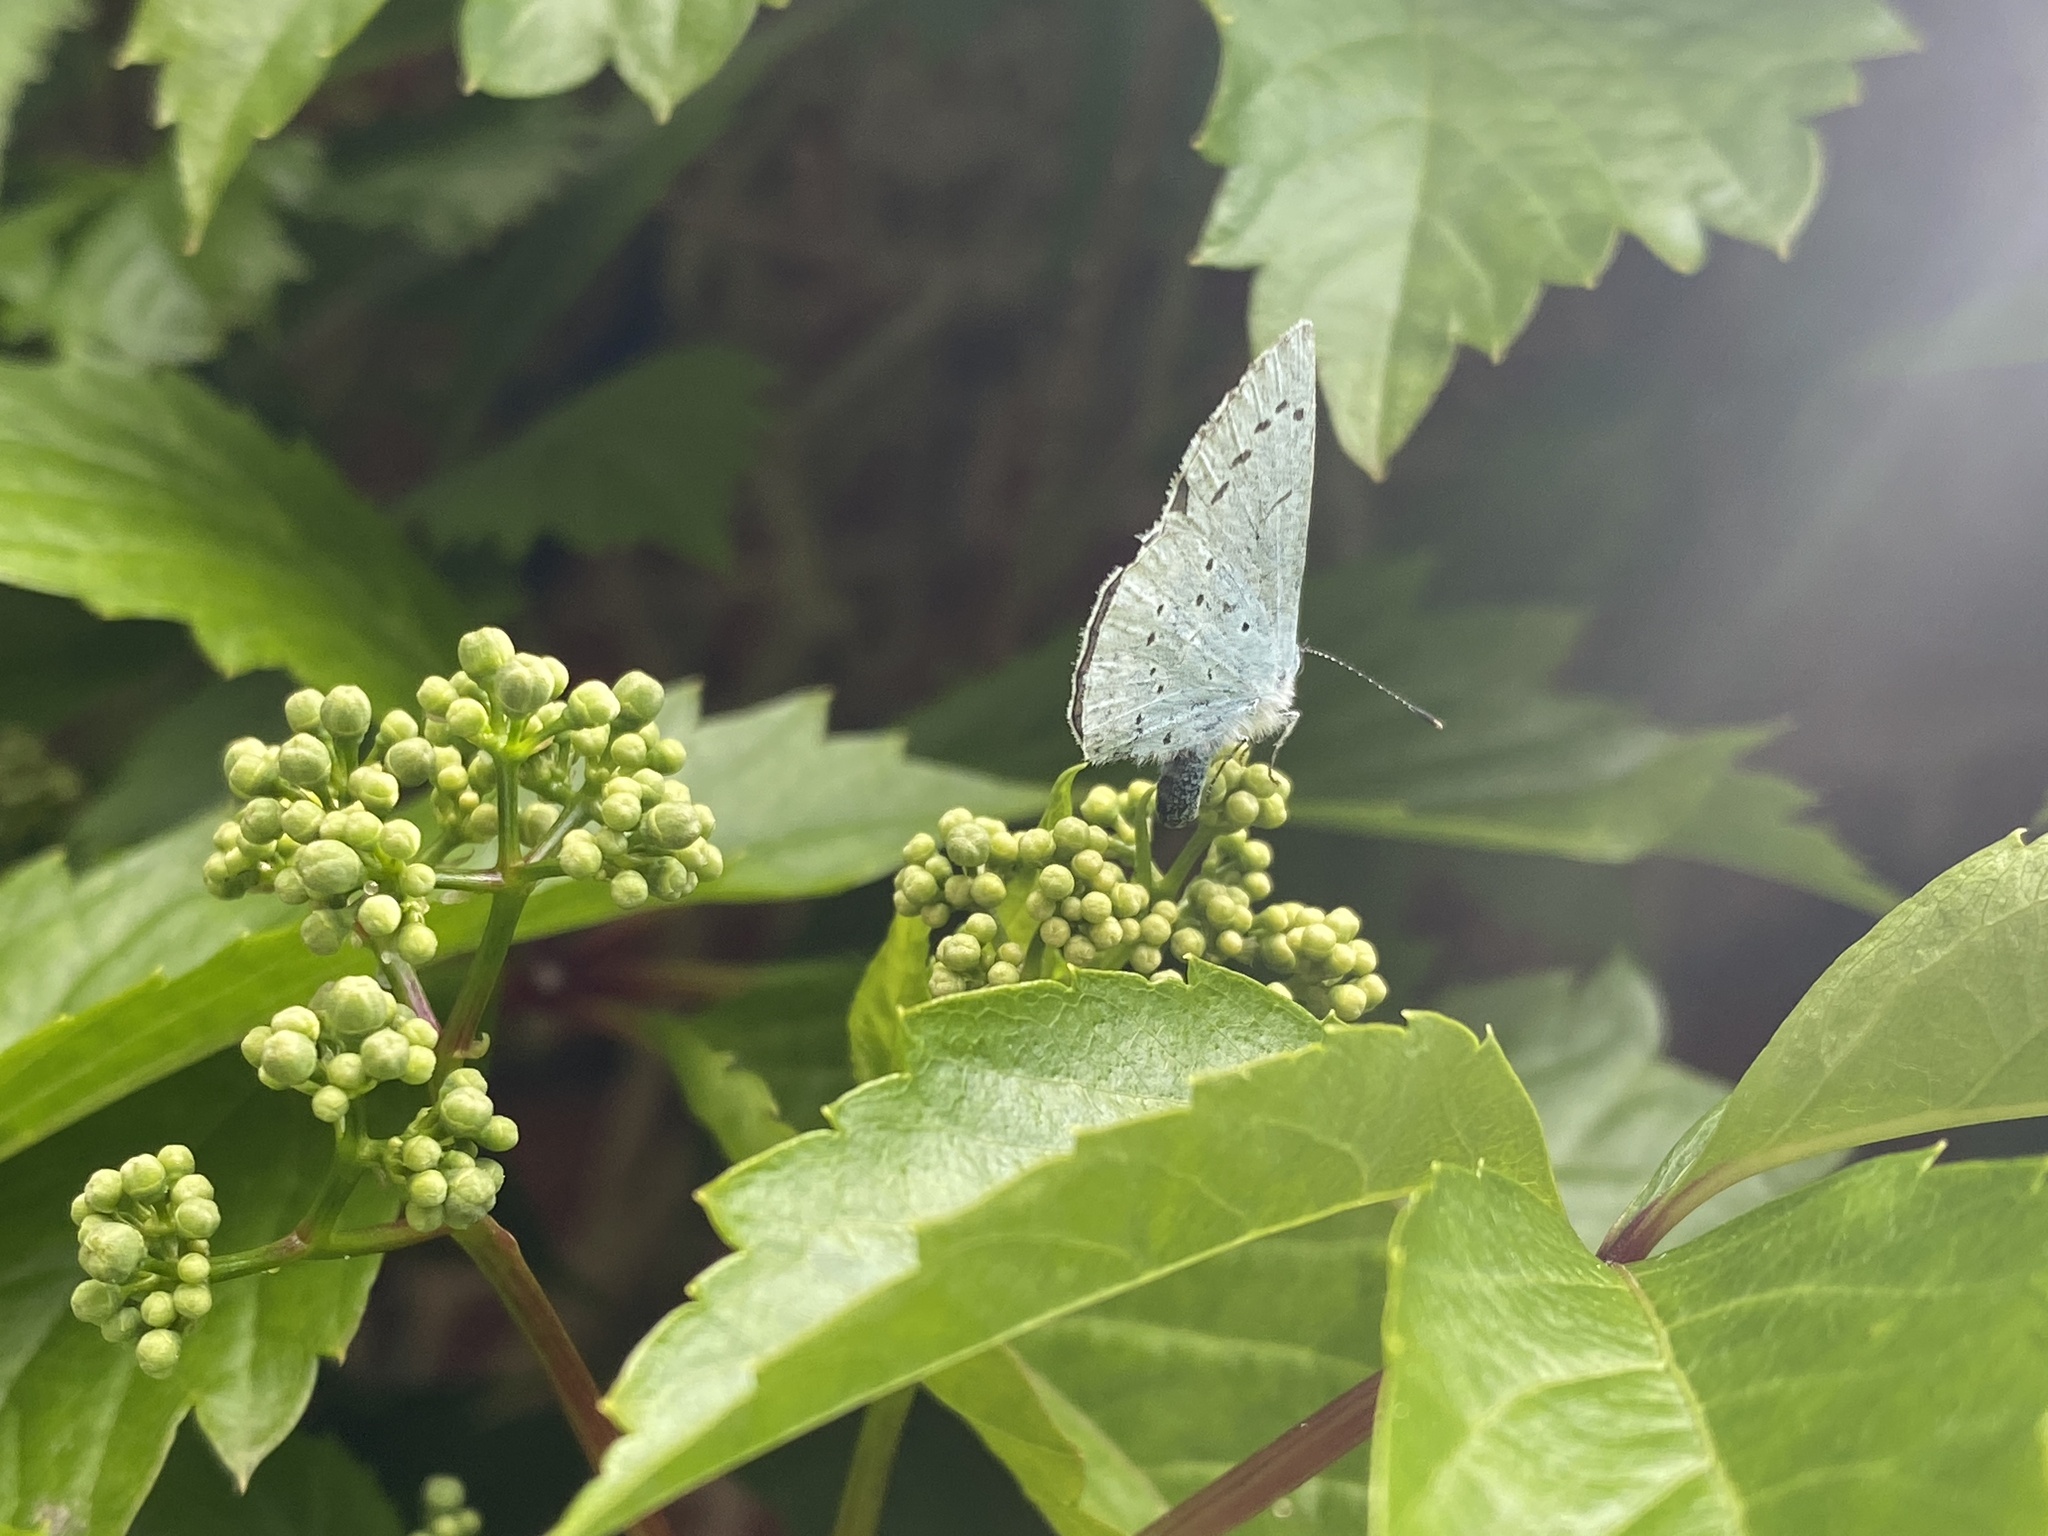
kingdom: Animalia
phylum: Arthropoda
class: Insecta
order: Lepidoptera
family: Lycaenidae
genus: Celastrina
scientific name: Celastrina argiolus
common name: Holly blue
